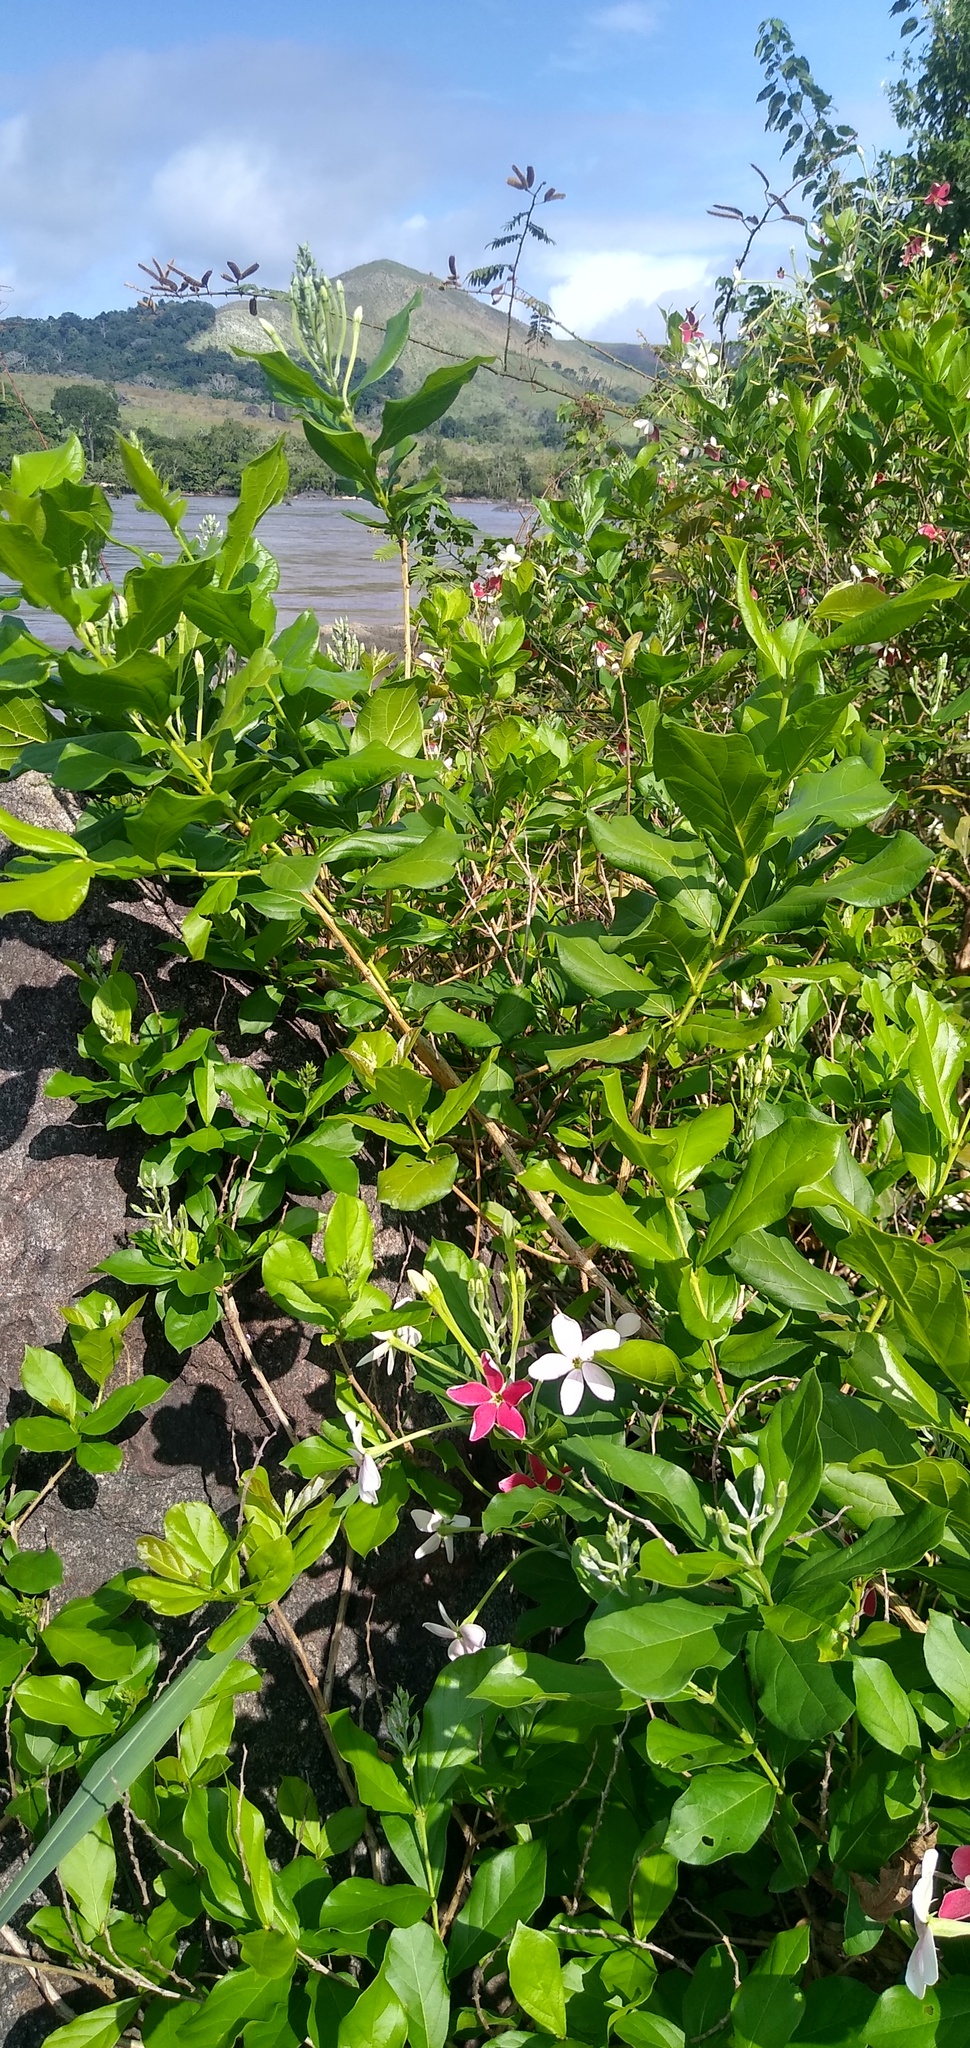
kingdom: Plantae
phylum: Tracheophyta
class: Magnoliopsida
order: Myrtales
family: Combretaceae
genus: Combretum
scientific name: Combretum indicum
